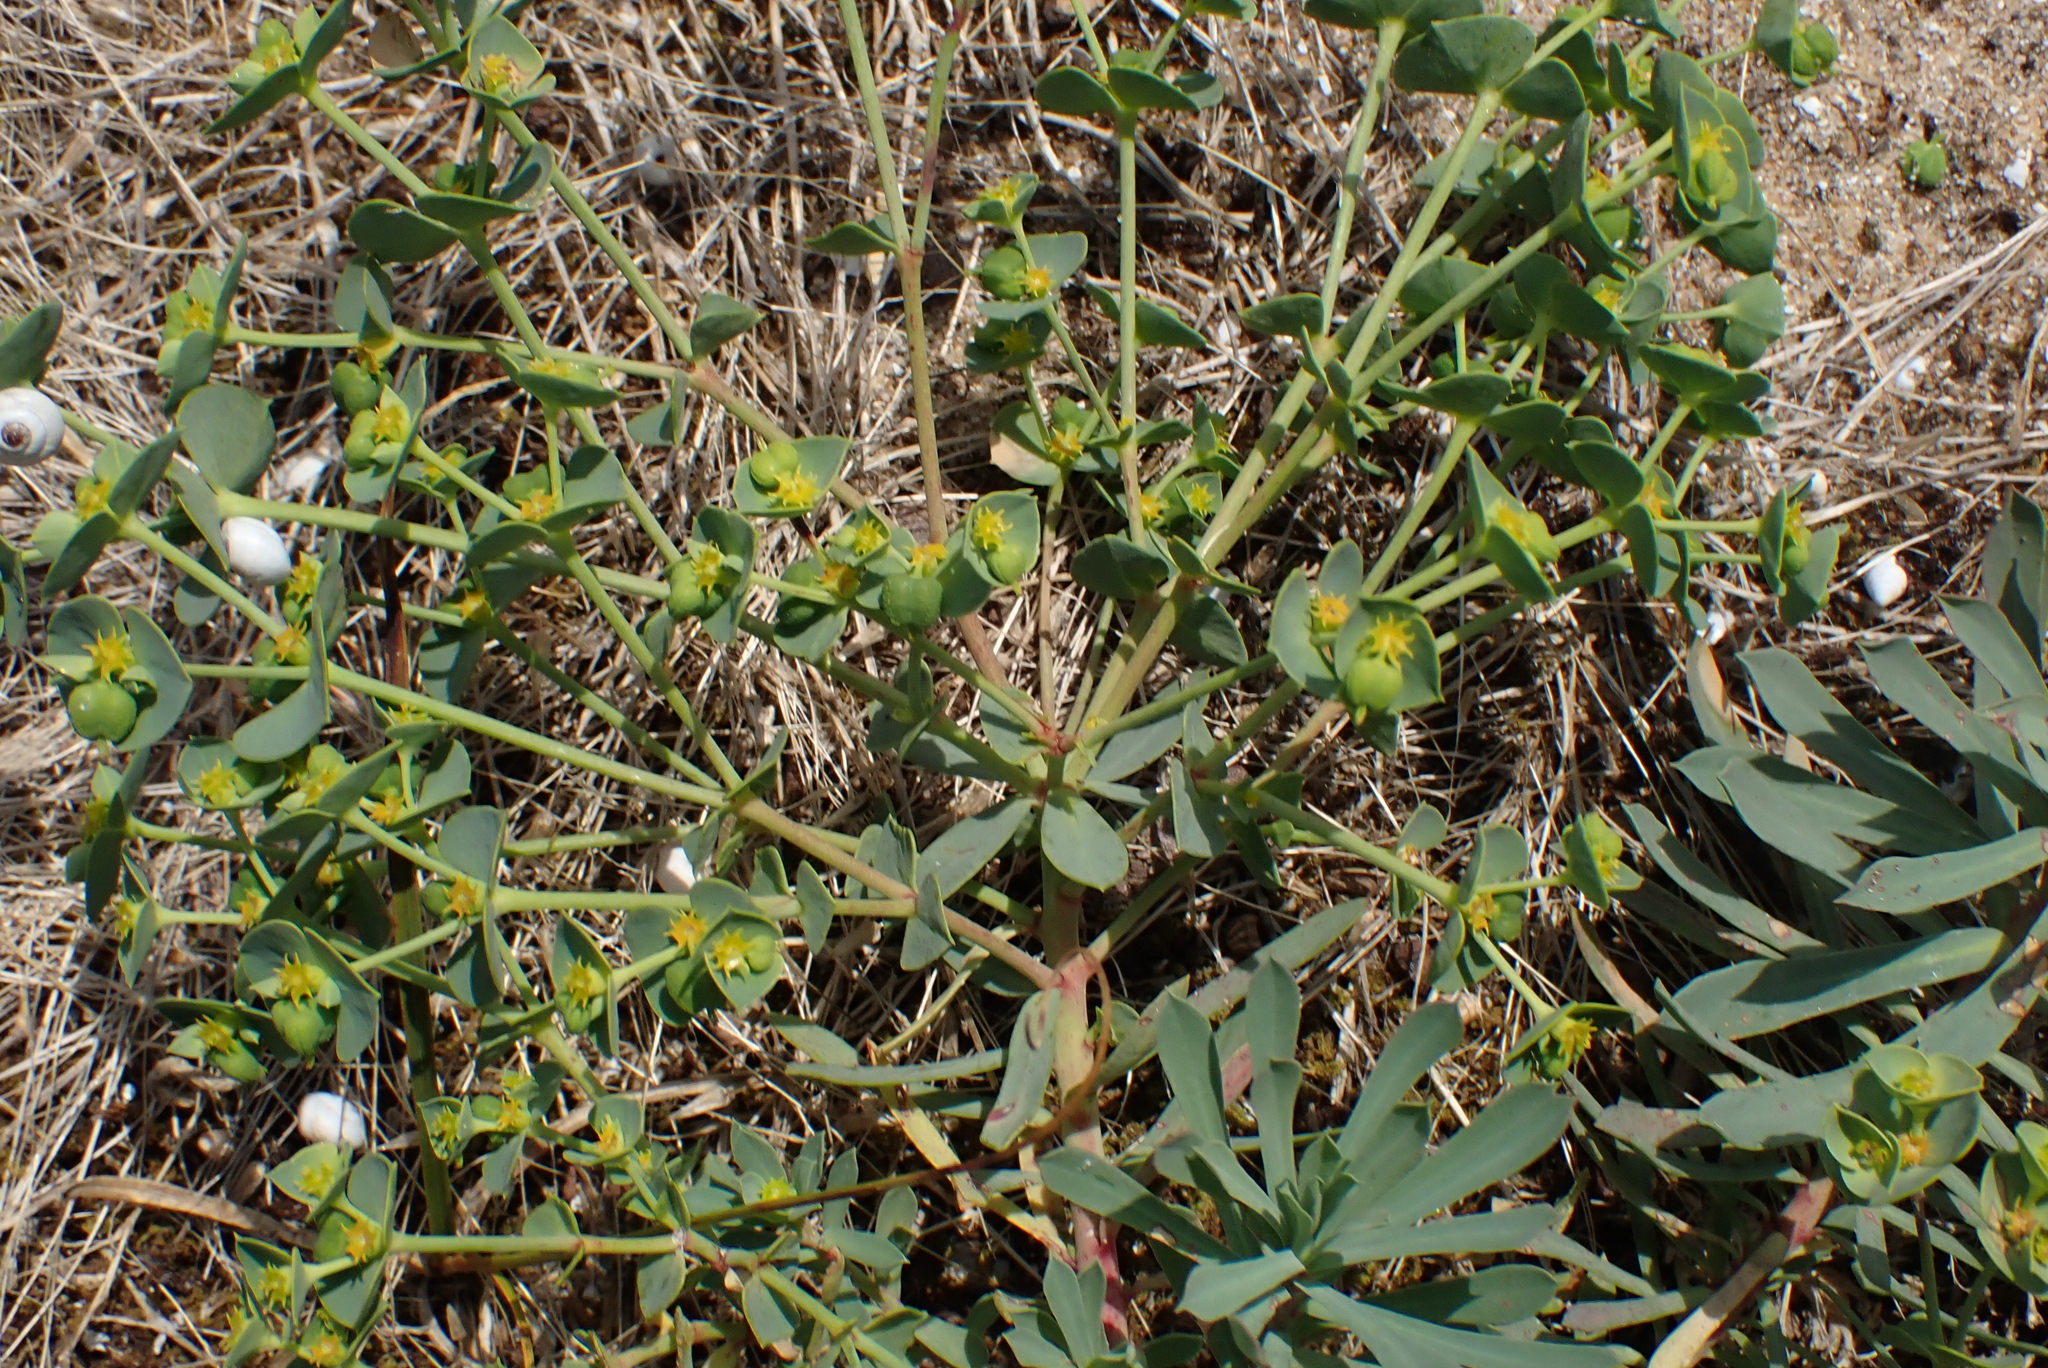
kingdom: Plantae
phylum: Tracheophyta
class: Magnoliopsida
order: Malpighiales
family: Euphorbiaceae
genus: Euphorbia
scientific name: Euphorbia portlandica
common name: Portland spurge
